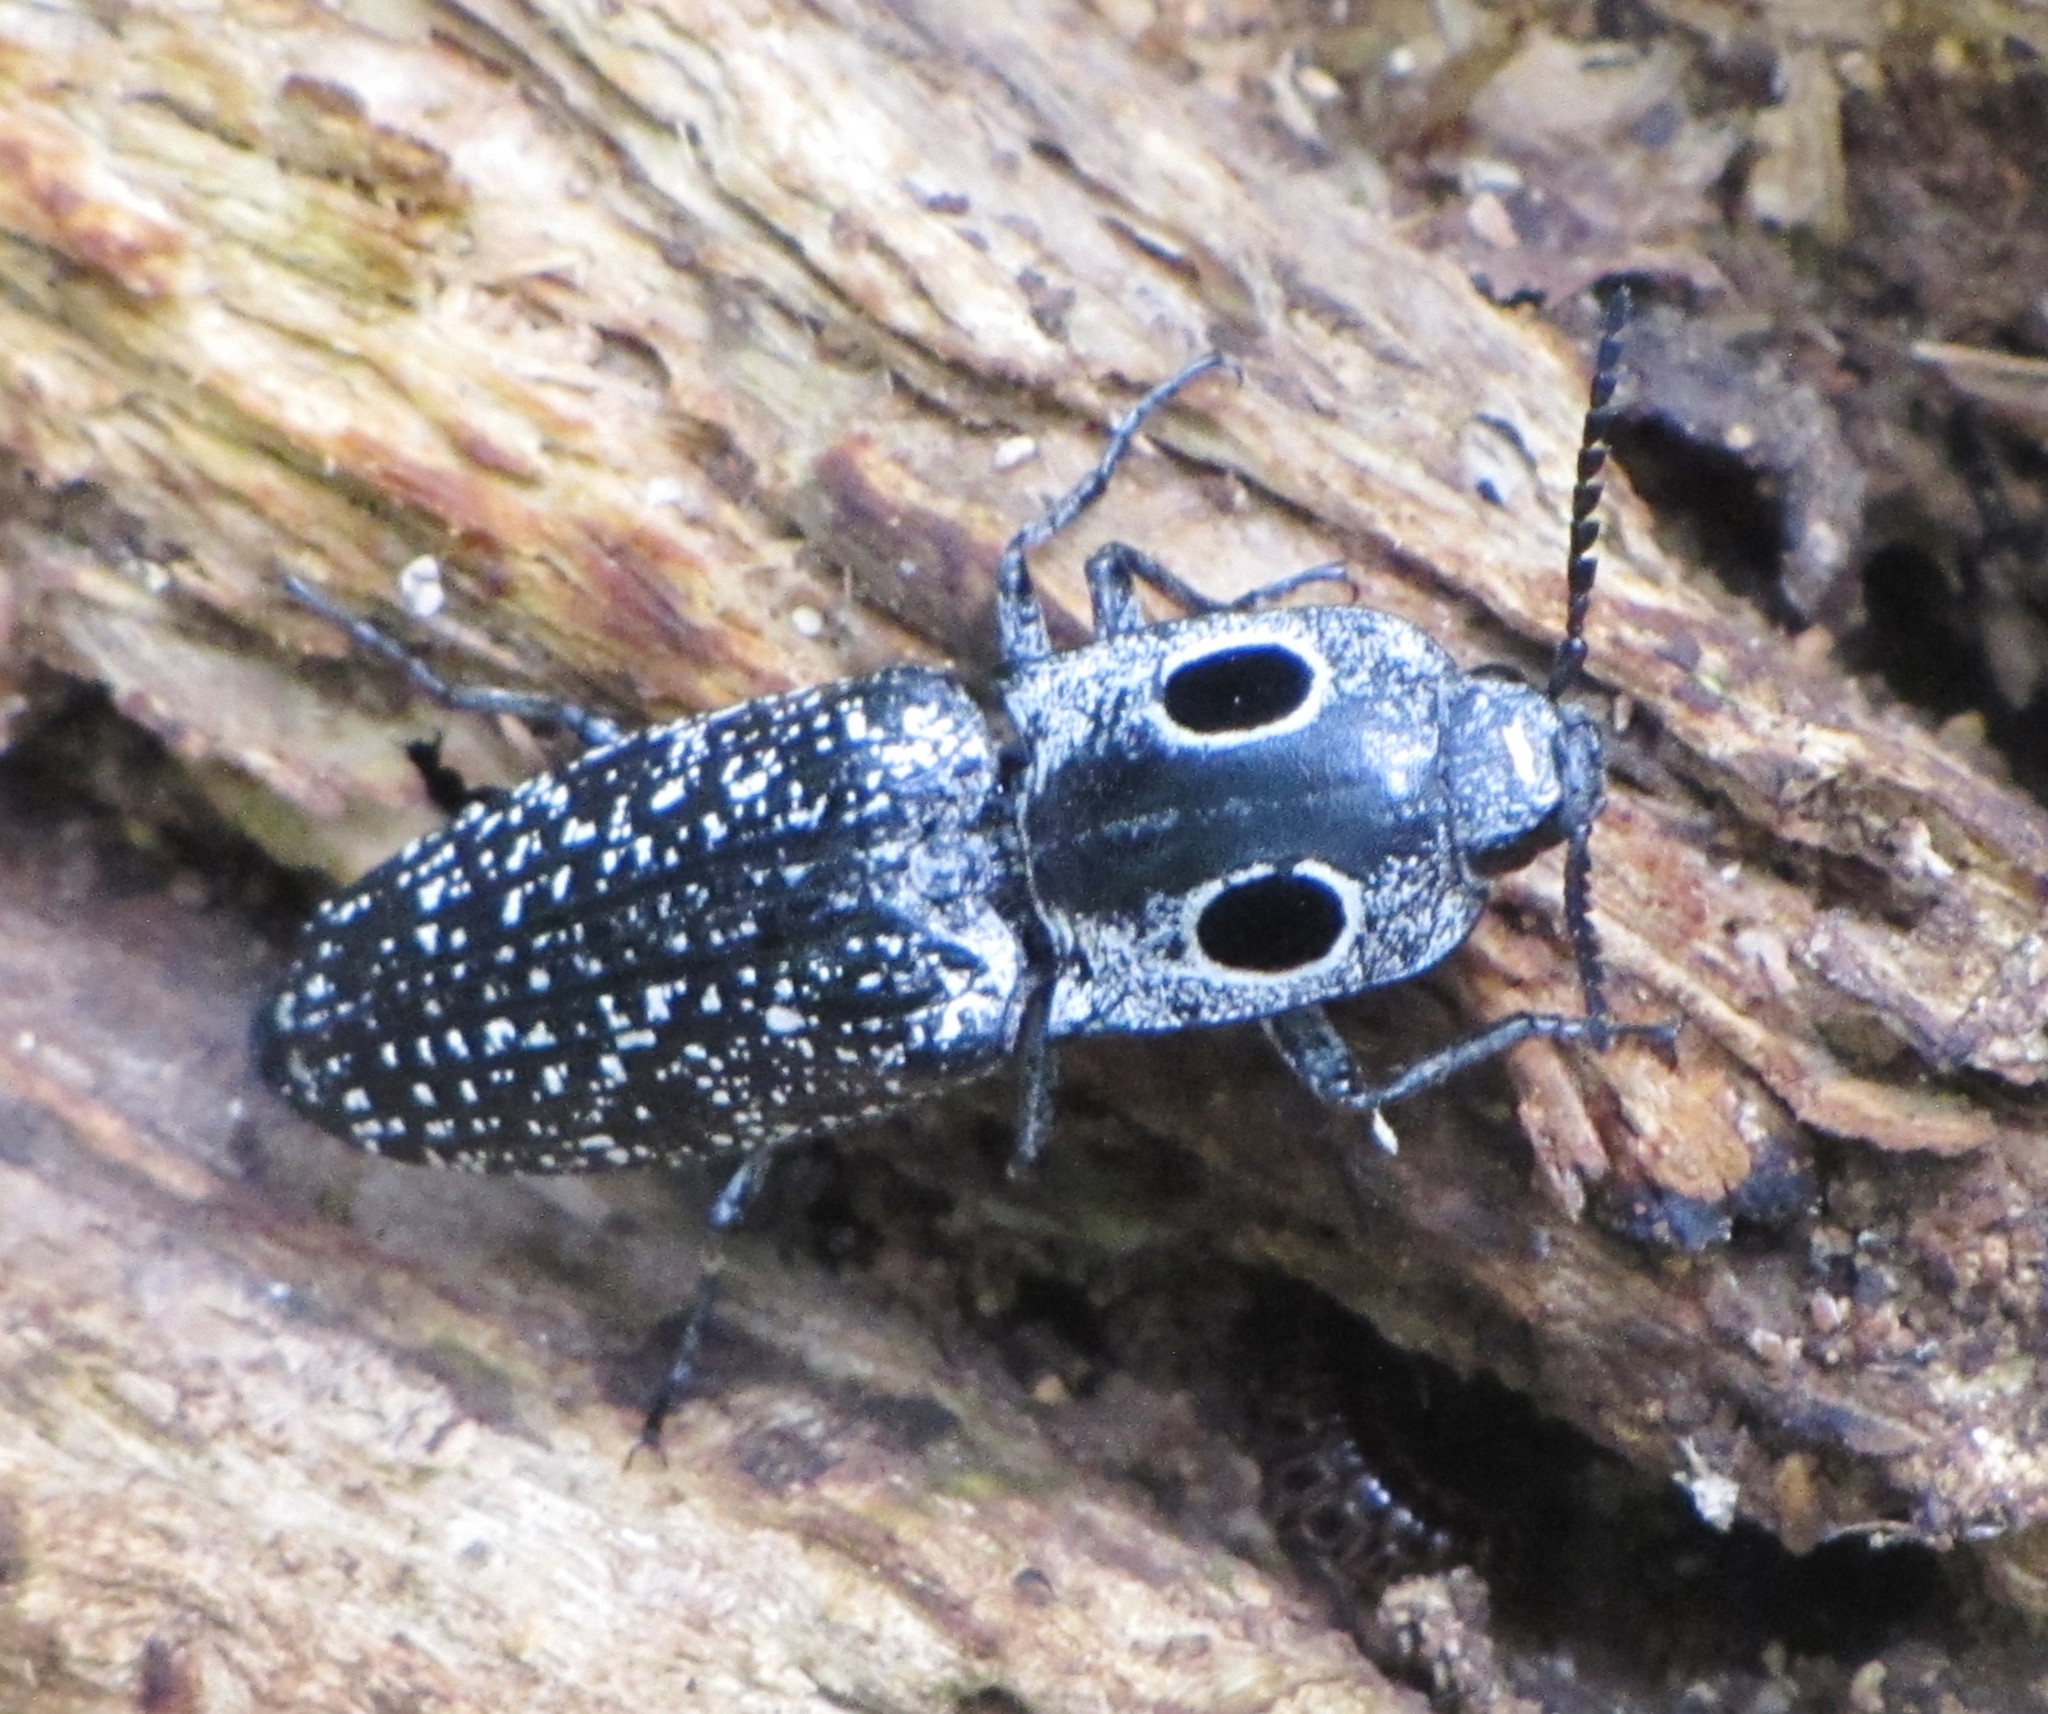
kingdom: Animalia
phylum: Arthropoda
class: Insecta
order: Coleoptera
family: Elateridae
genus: Alaus
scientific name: Alaus oculatus
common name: Eastern eyed click beetle
